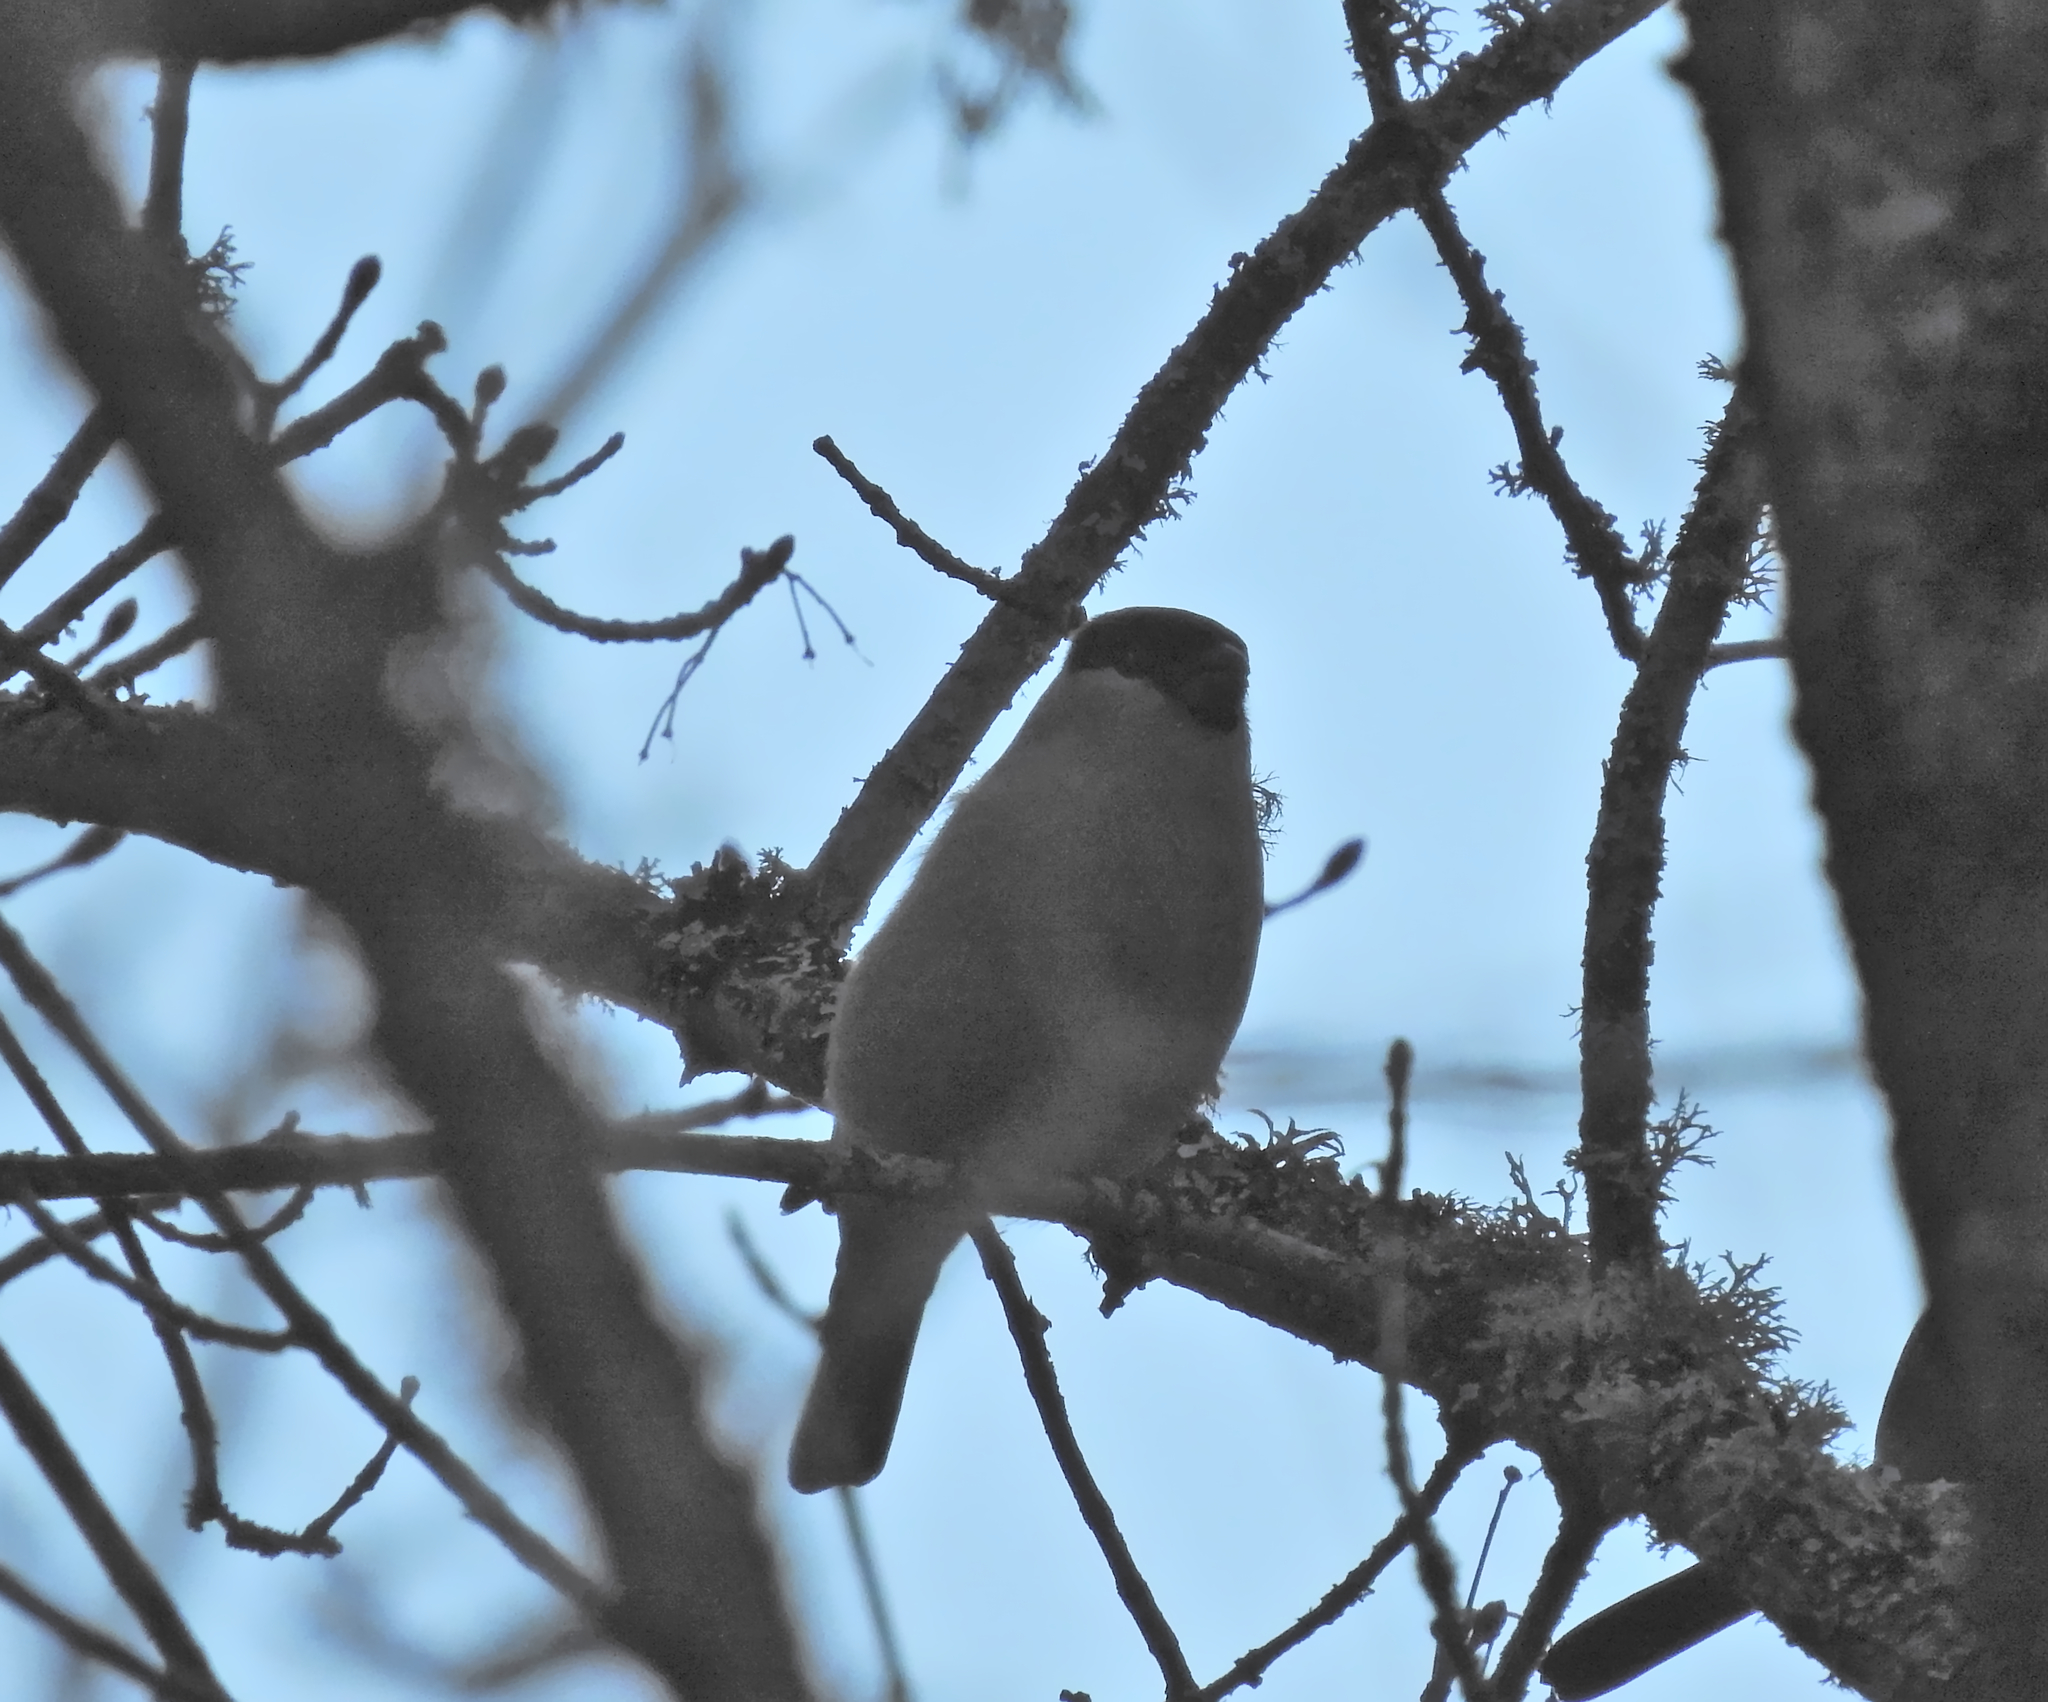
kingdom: Animalia
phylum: Chordata
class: Aves
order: Passeriformes
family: Fringillidae
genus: Pyrrhula
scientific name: Pyrrhula pyrrhula
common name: Eurasian bullfinch
